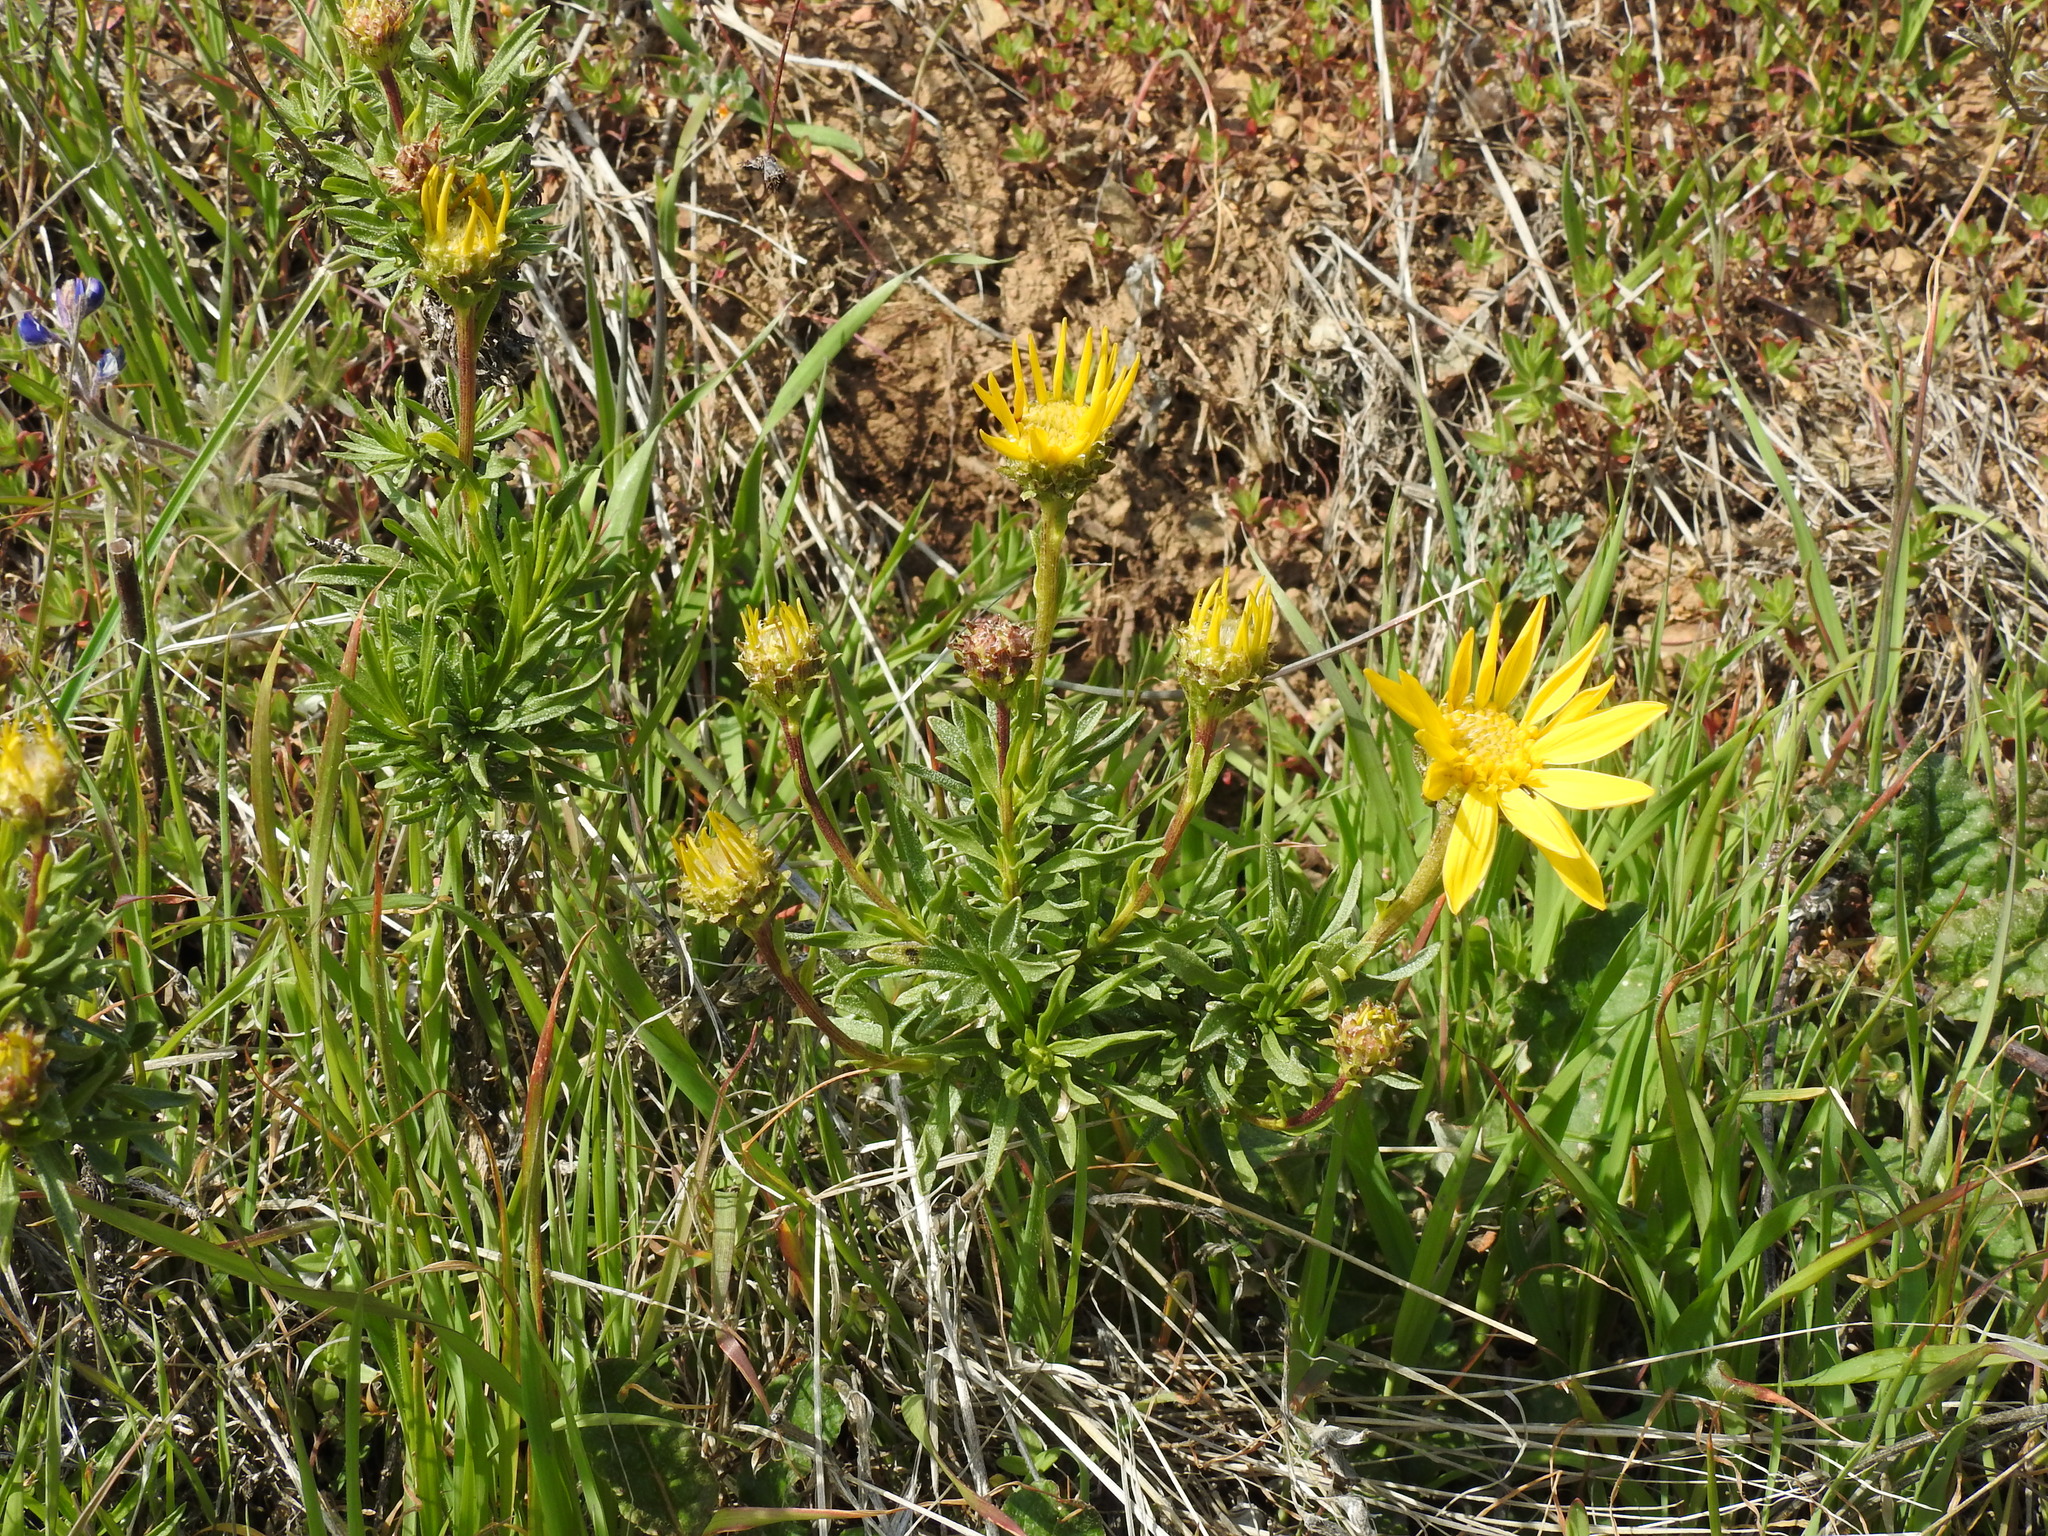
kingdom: Plantae
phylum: Tracheophyta
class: Magnoliopsida
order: Asterales
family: Asteraceae
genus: Ericameria
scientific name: Ericameria linearifolia
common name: Interior goldenbush
